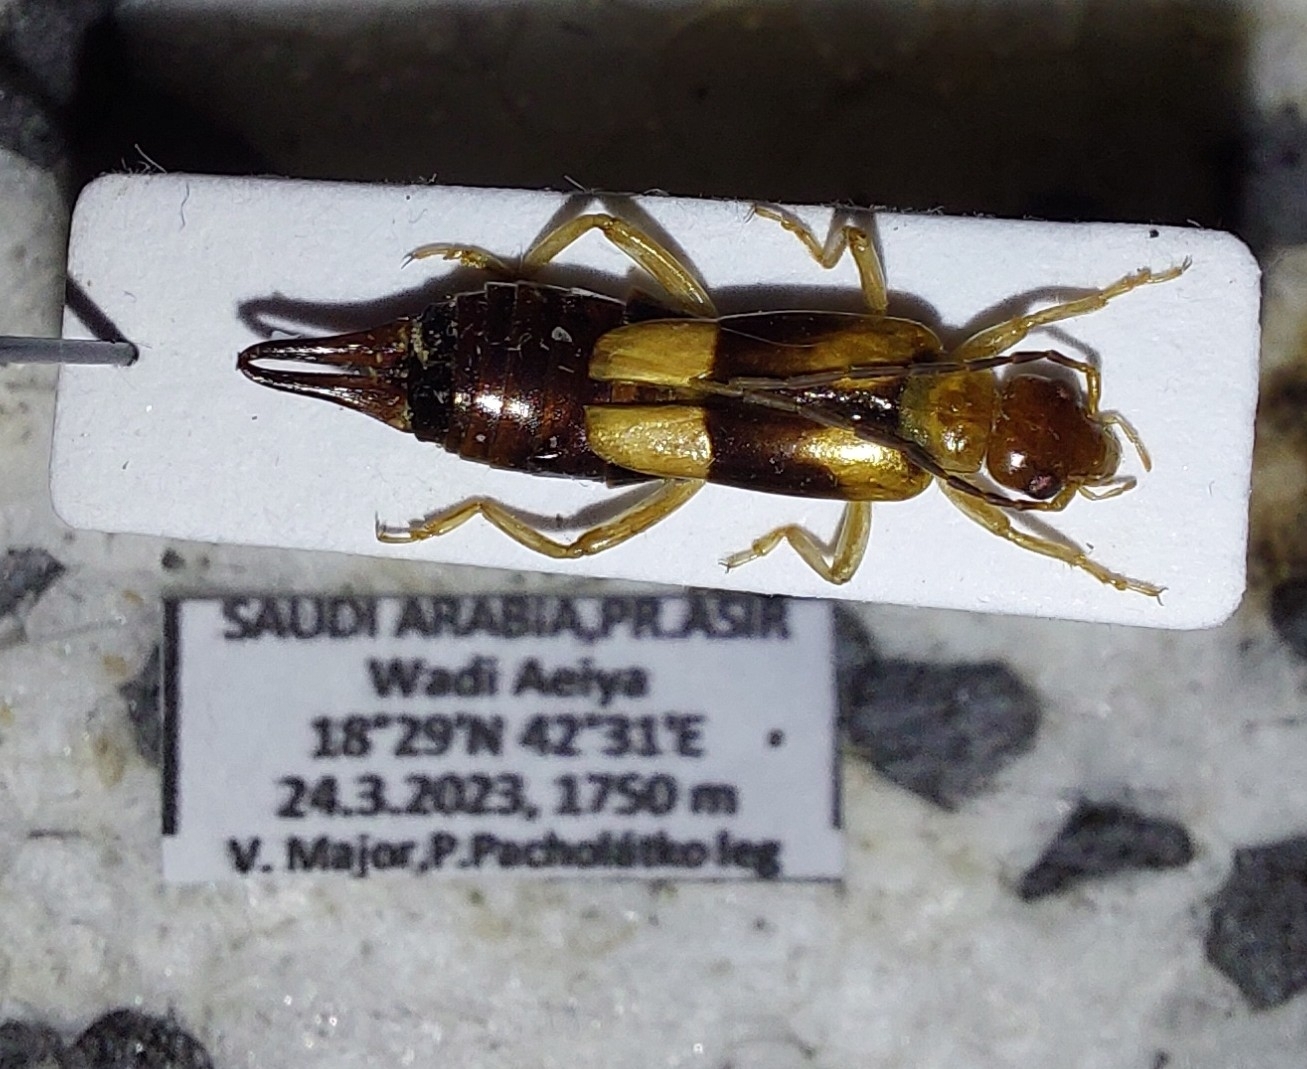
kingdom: Animalia
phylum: Arthropoda
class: Insecta
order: Dermaptera
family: Forficulidae
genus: Forficula
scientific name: Forficula lucasi
